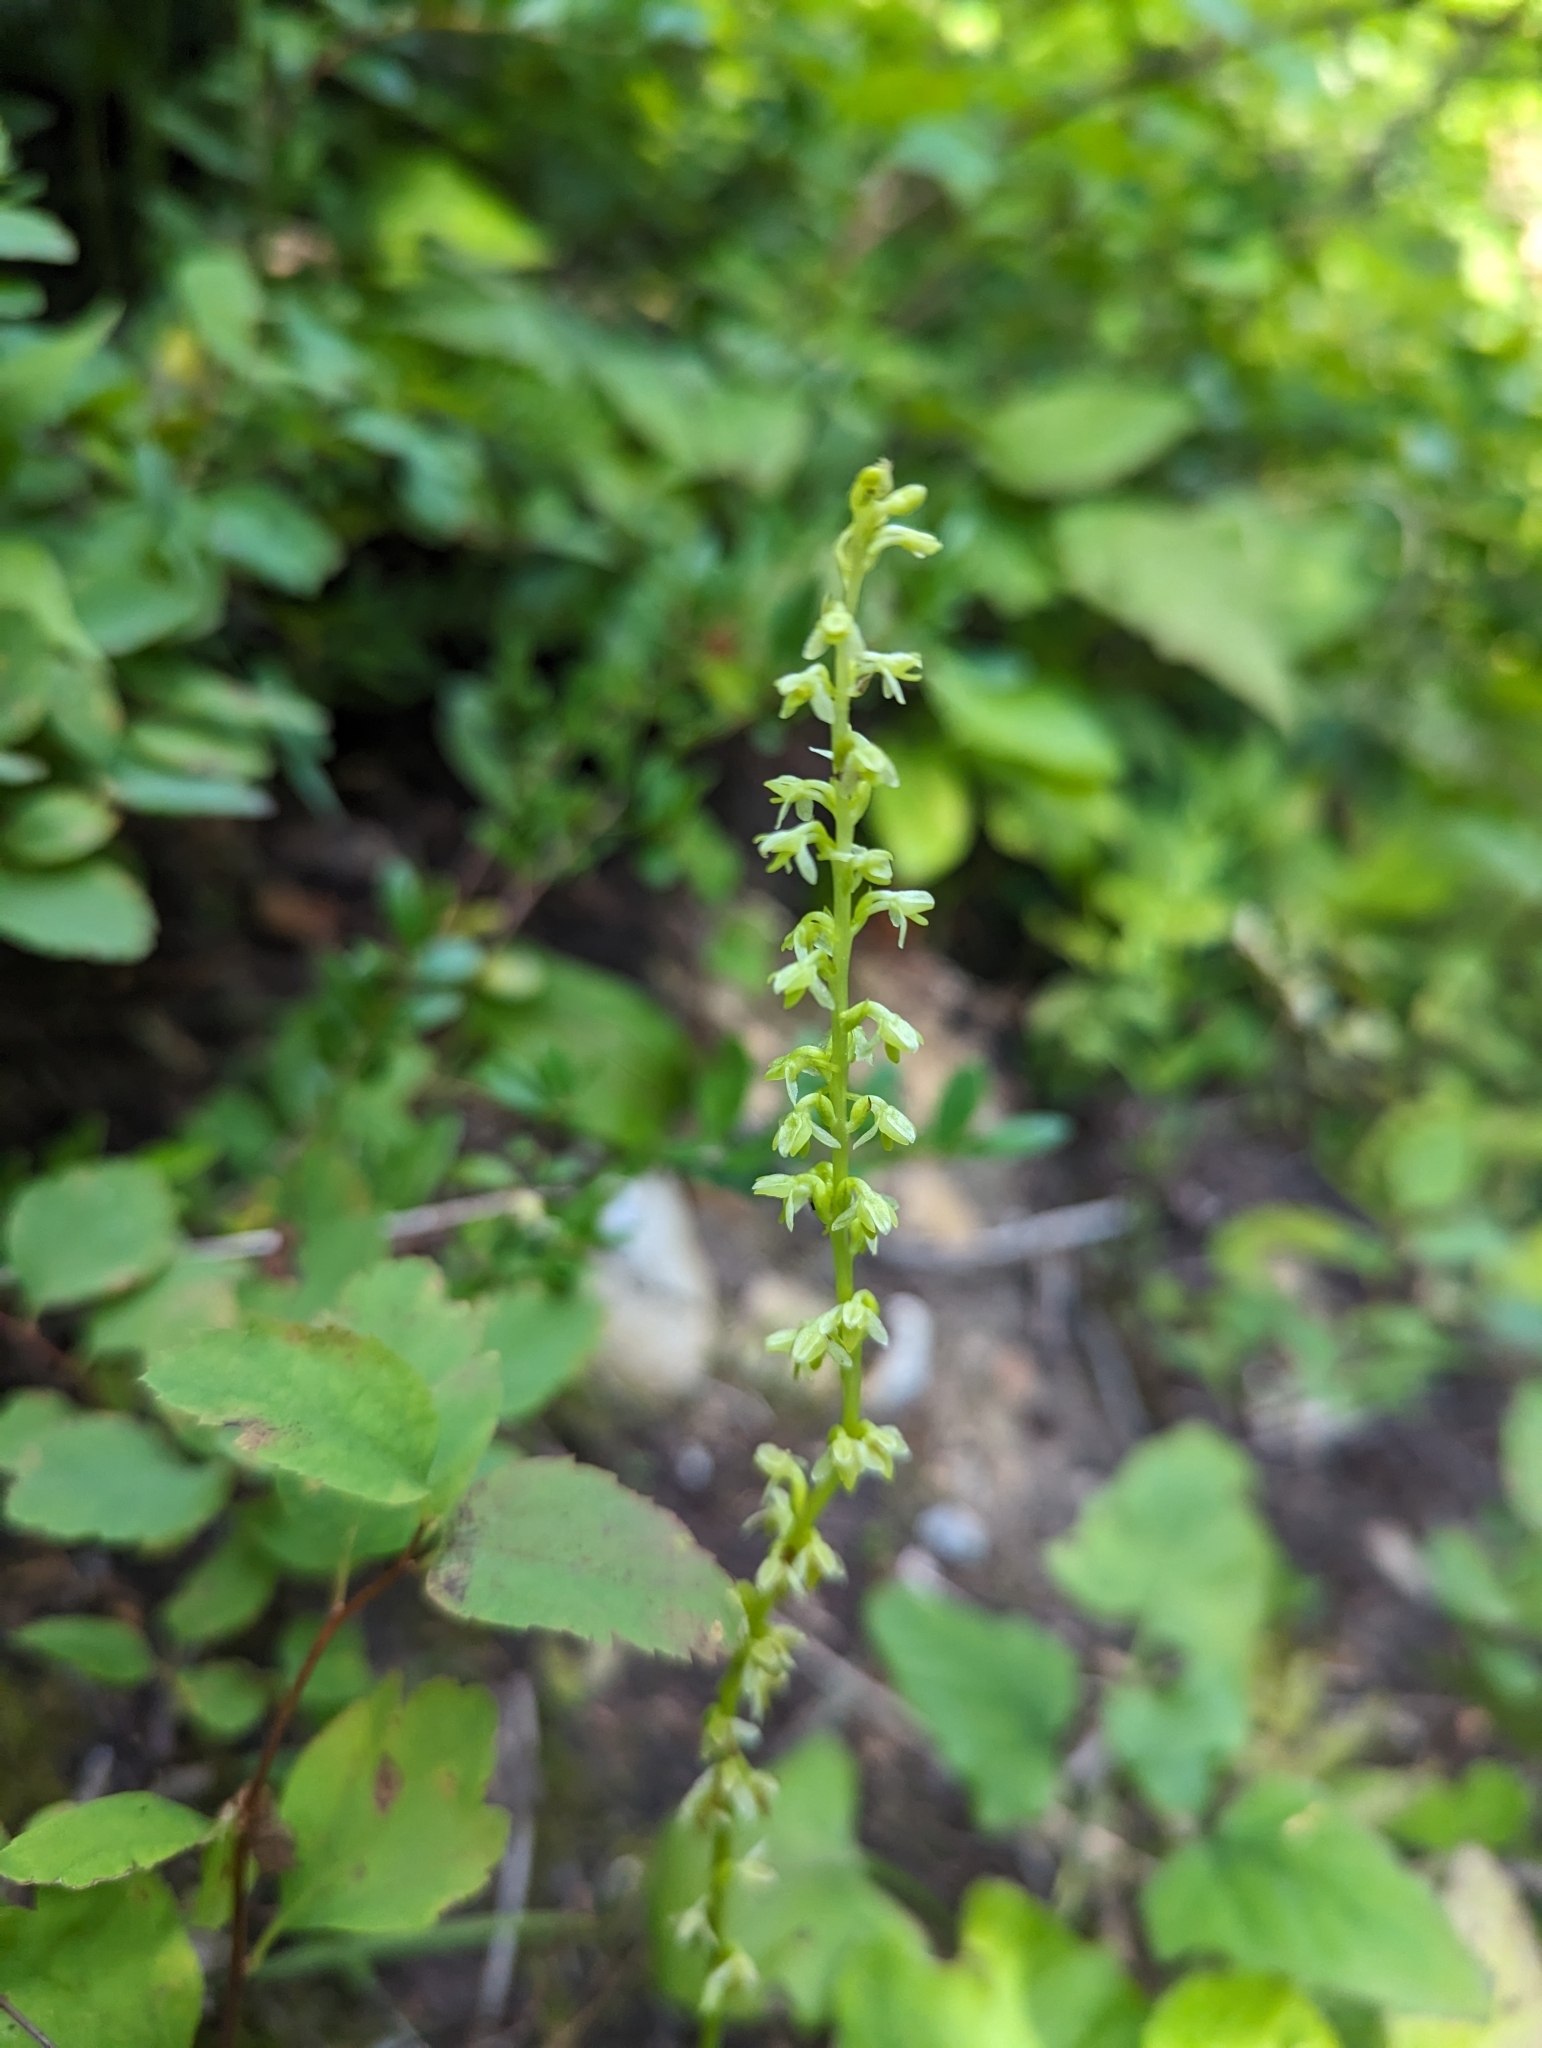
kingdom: Plantae
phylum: Tracheophyta
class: Liliopsida
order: Asparagales
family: Orchidaceae
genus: Platanthera
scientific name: Platanthera unalascensis
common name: Alaska bog orchid
